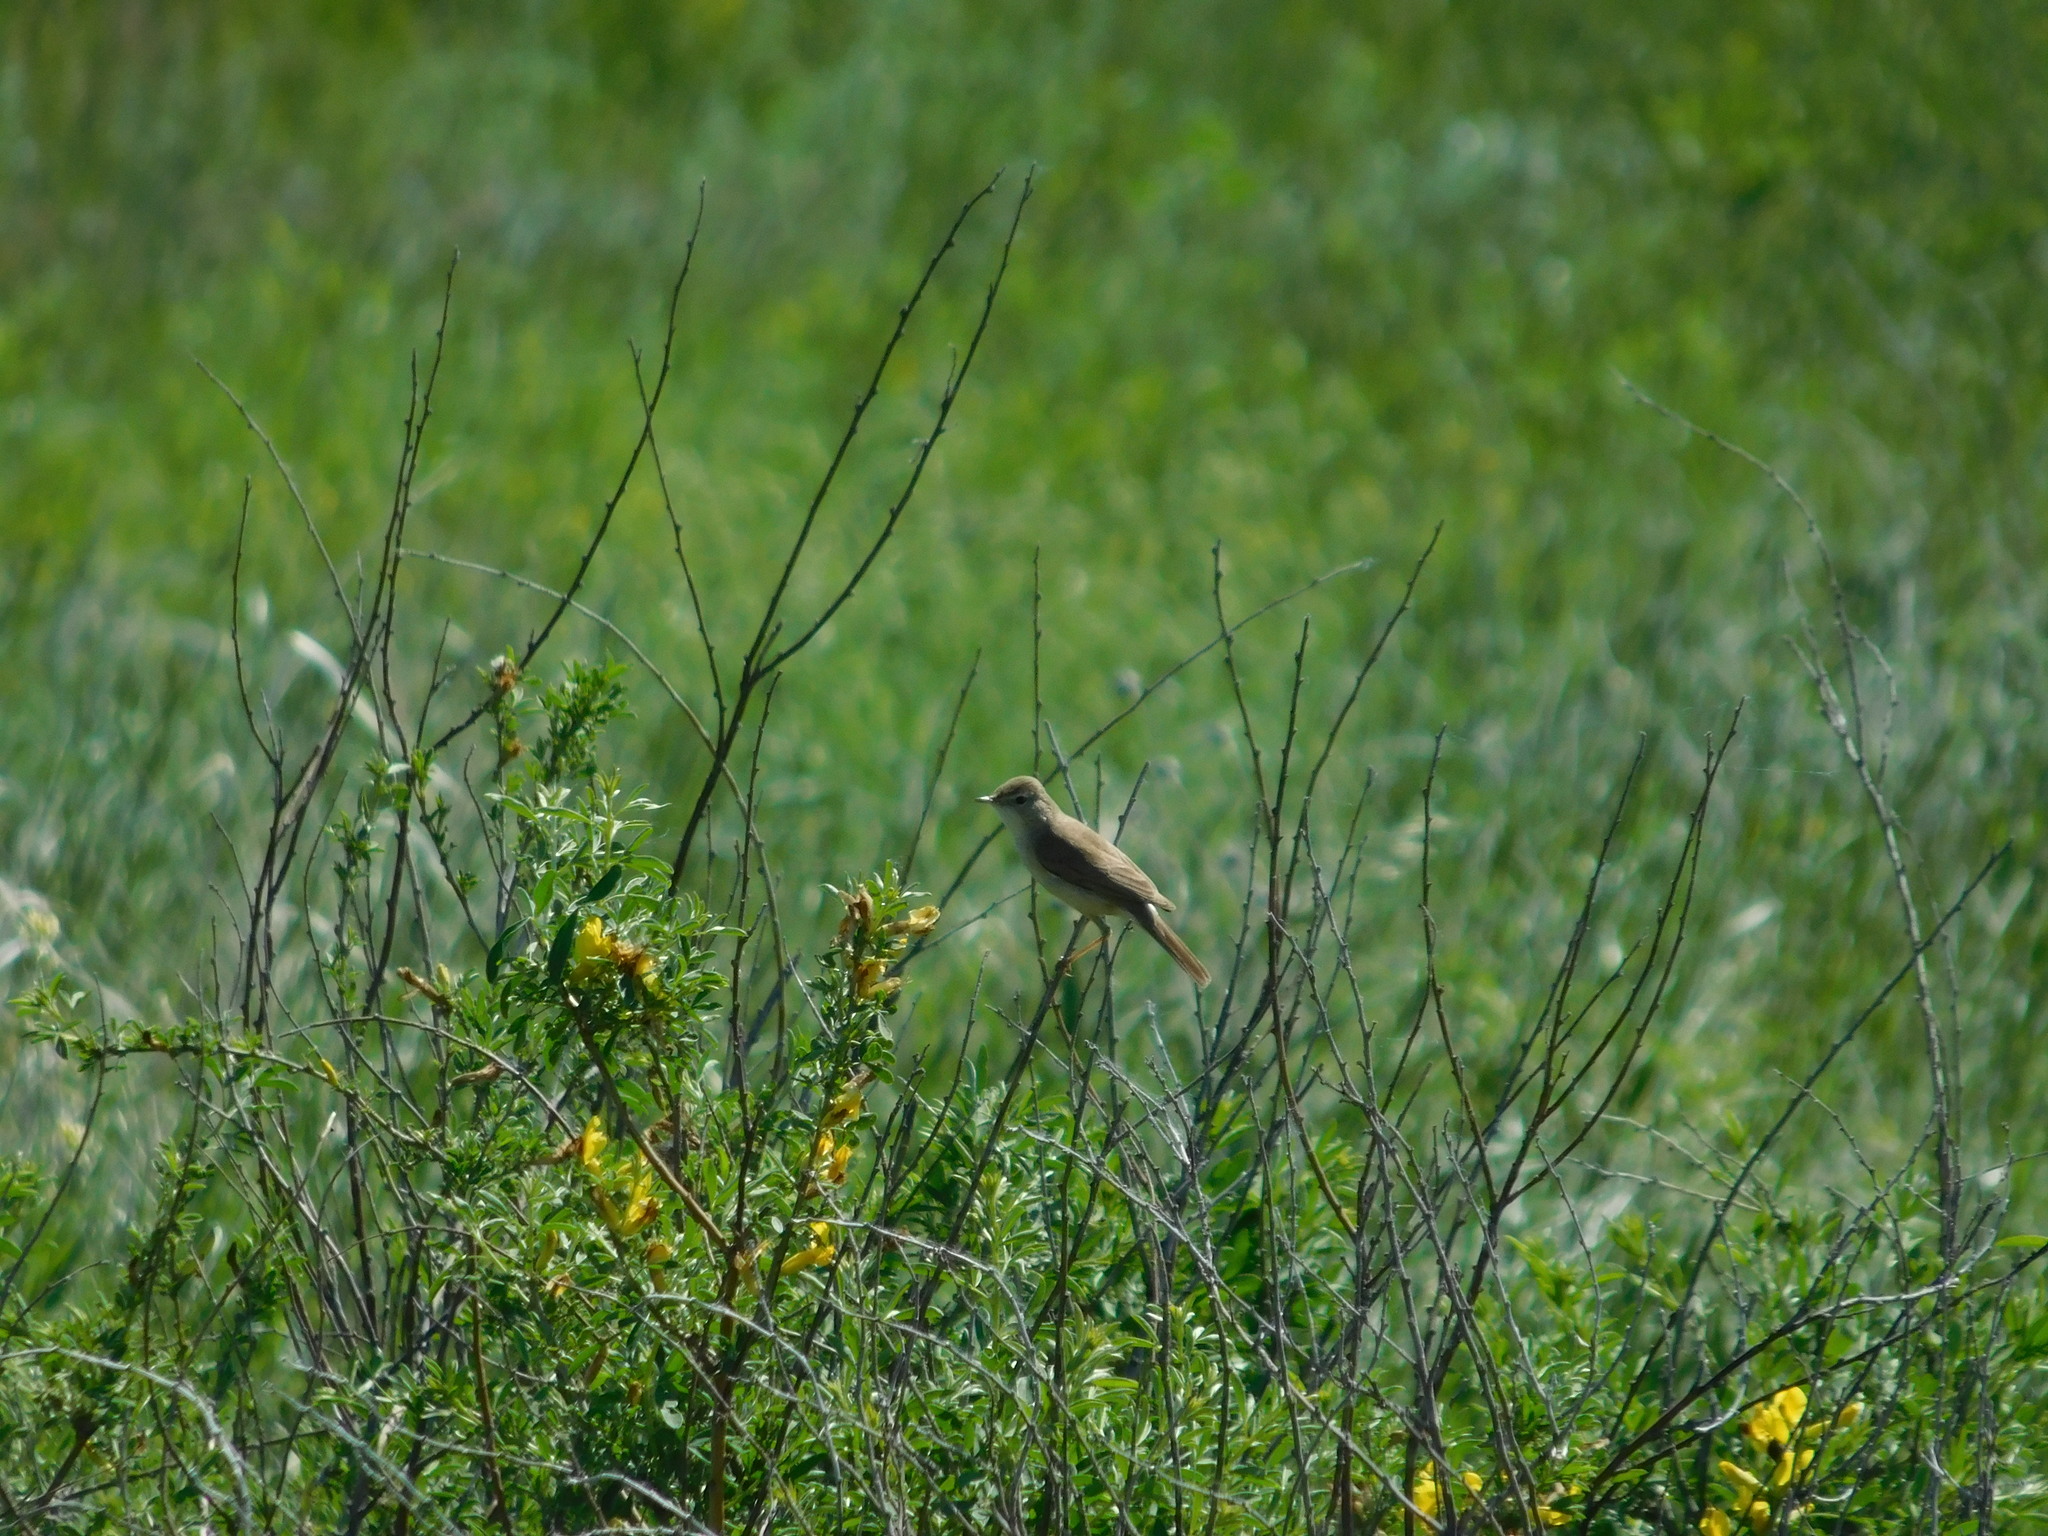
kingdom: Animalia
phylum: Chordata
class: Aves
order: Passeriformes
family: Acrocephalidae
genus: Iduna
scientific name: Iduna caligata
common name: Booted warbler
